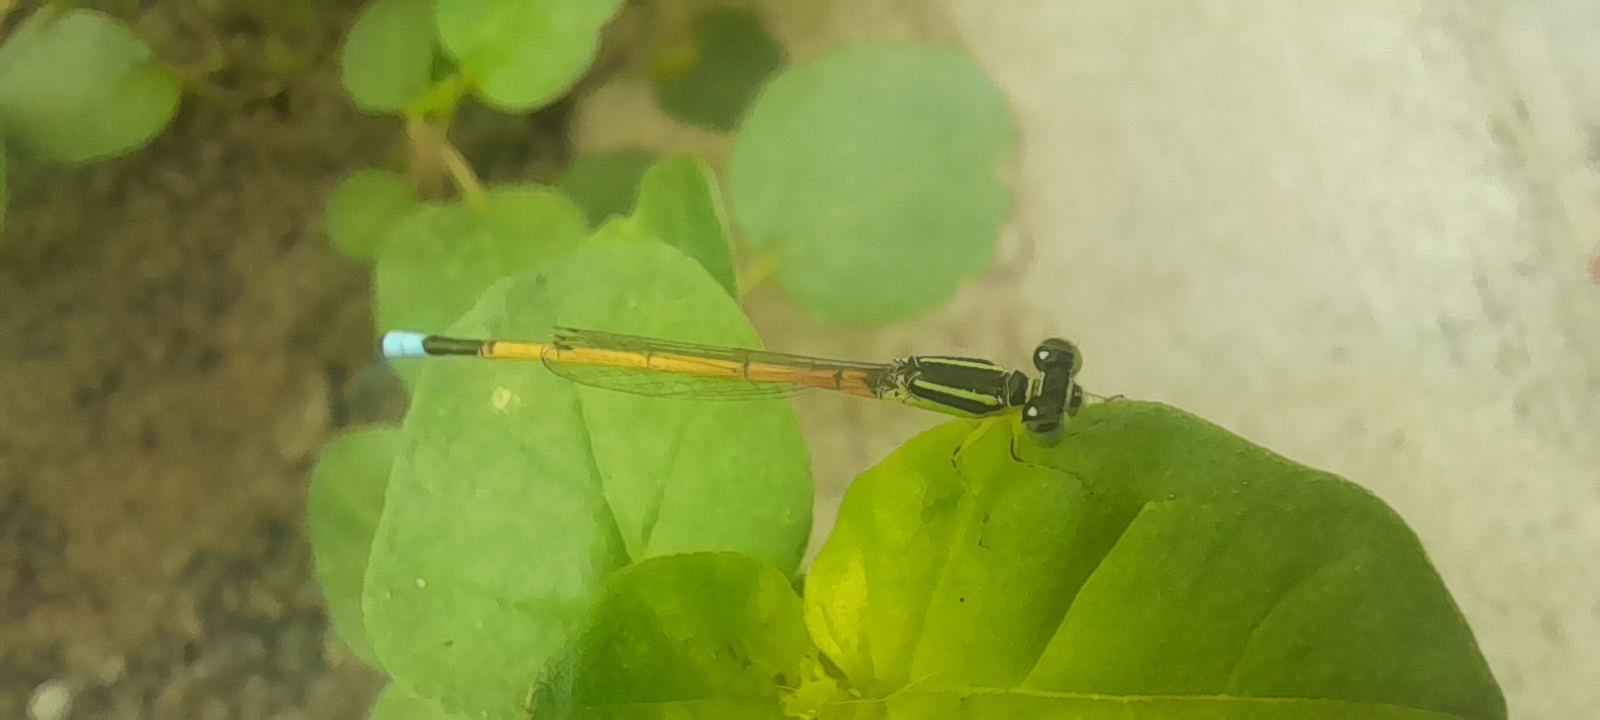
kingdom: Animalia
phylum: Arthropoda
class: Insecta
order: Odonata
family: Coenagrionidae
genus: Ischnura
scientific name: Ischnura rubilio
